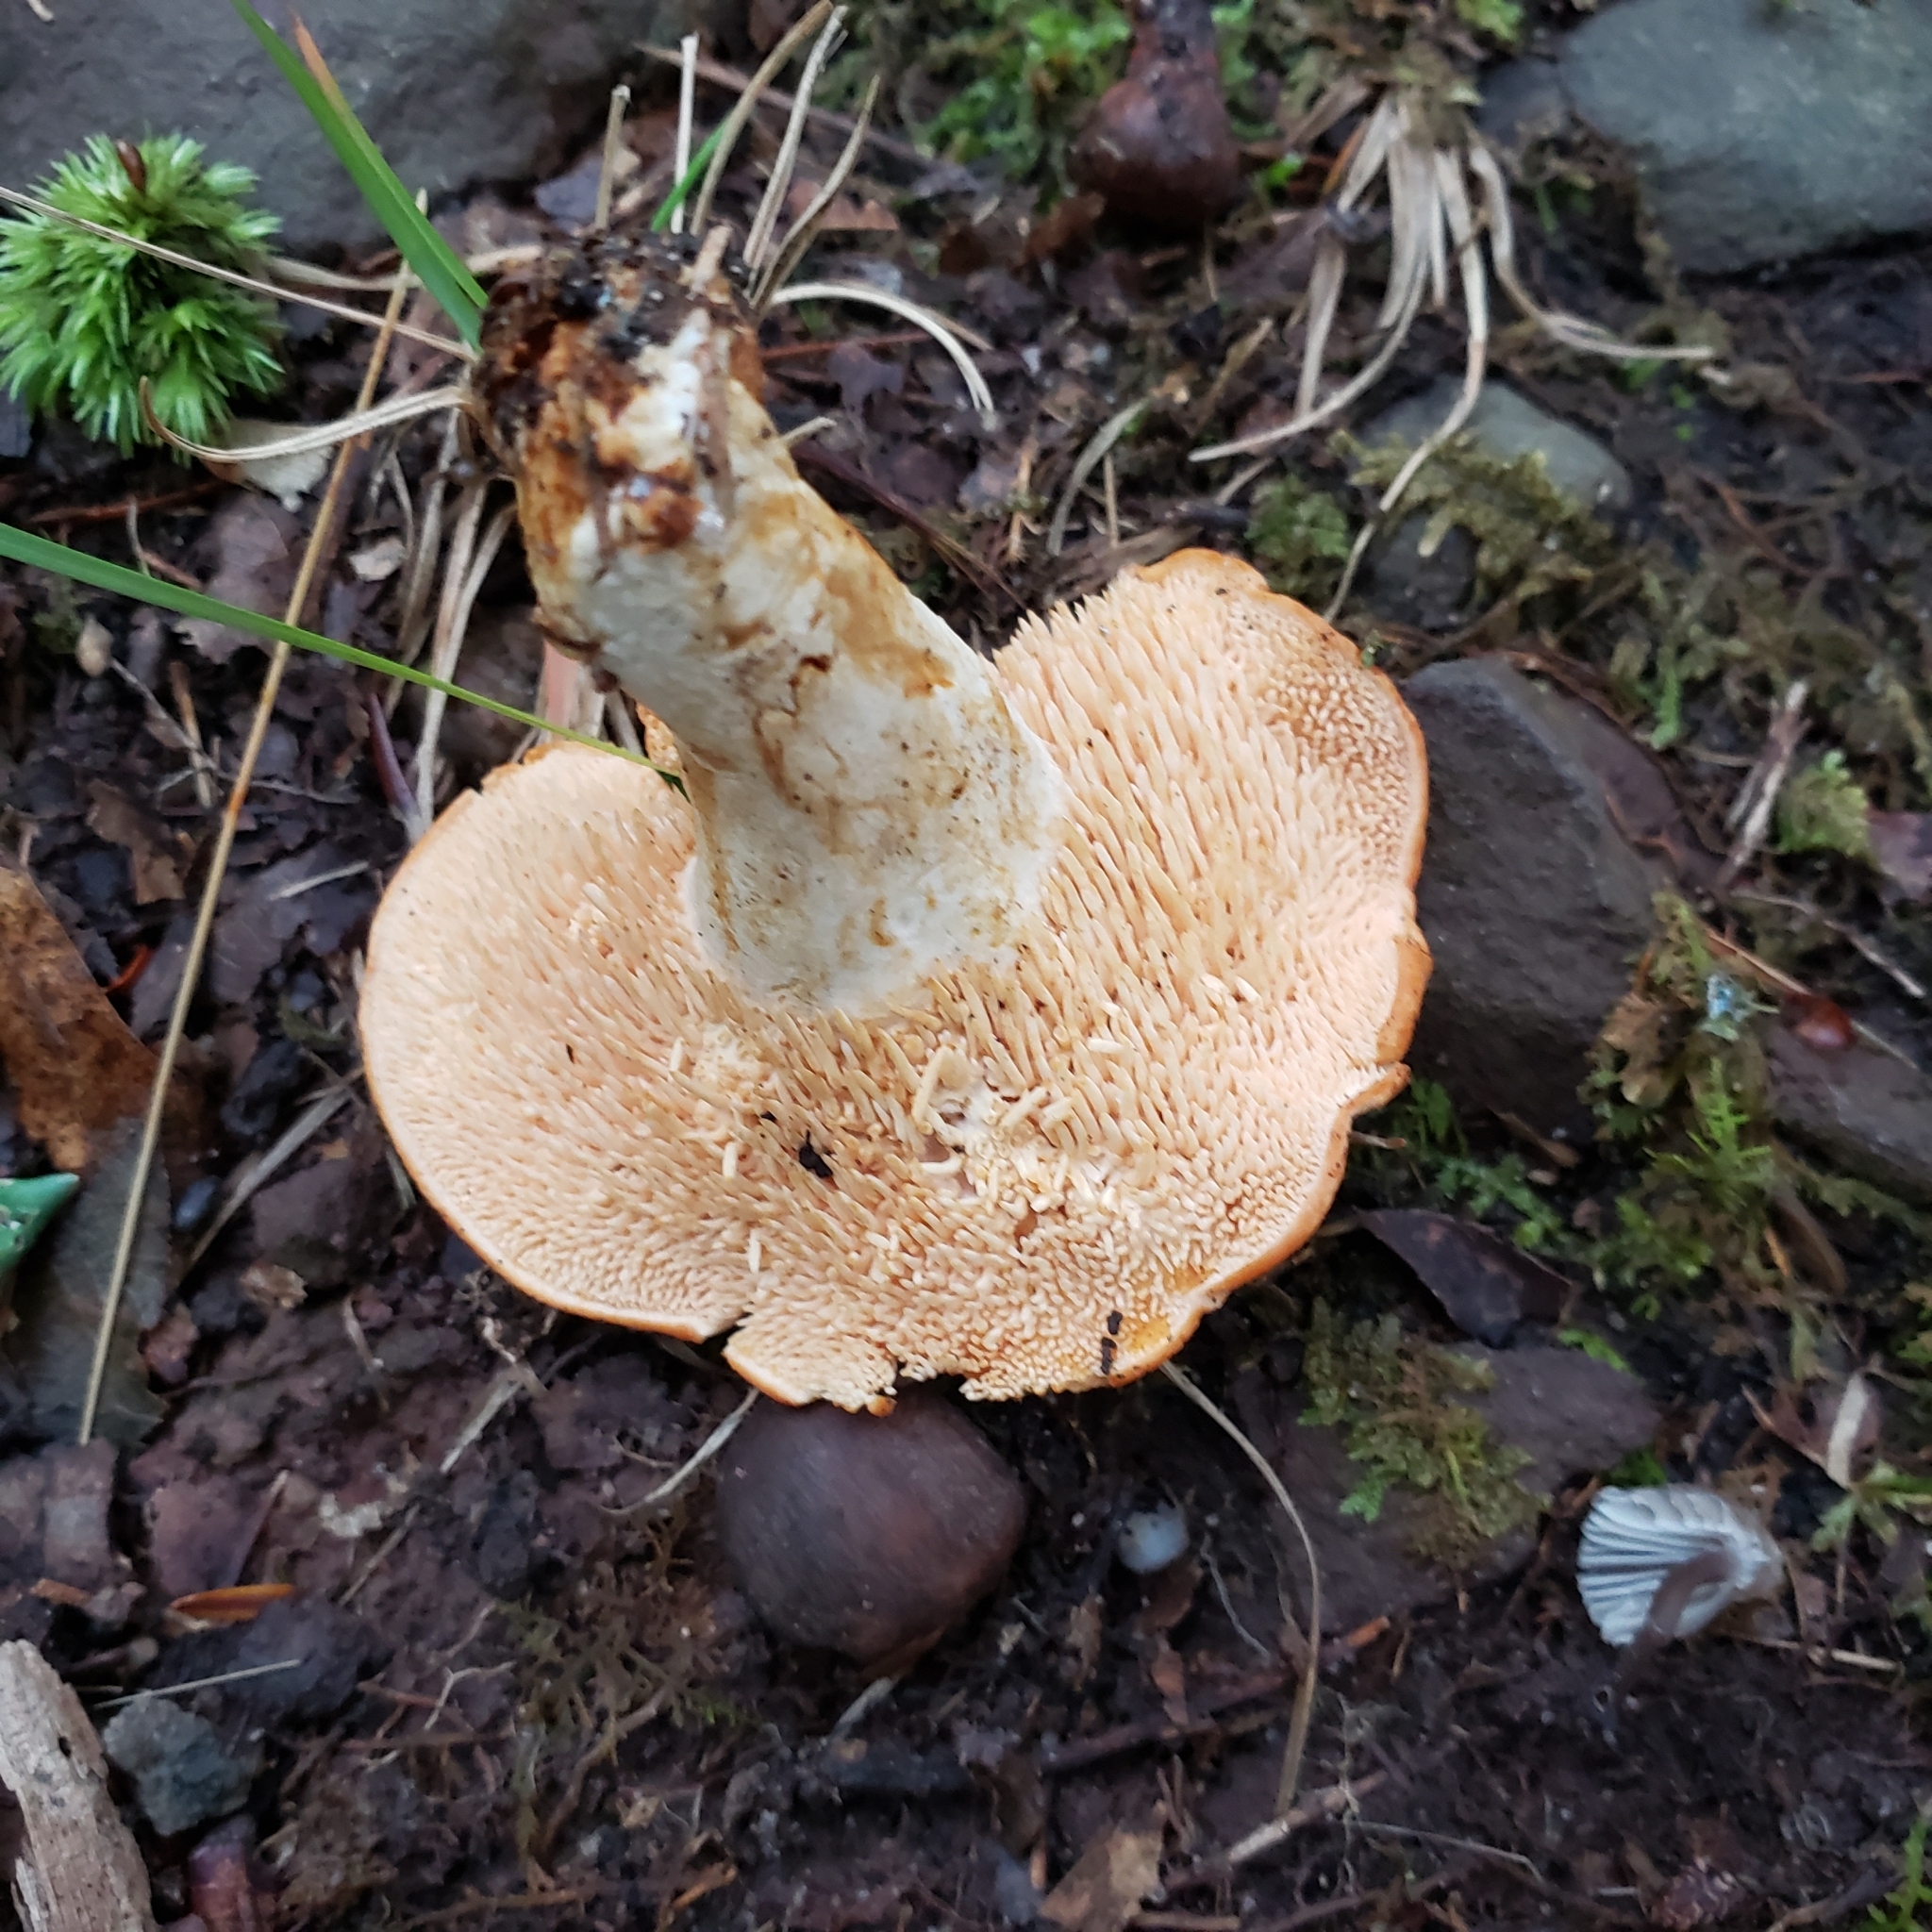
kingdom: Fungi
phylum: Basidiomycota
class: Agaricomycetes
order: Cantharellales
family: Hydnaceae
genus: Hydnum
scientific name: Hydnum umbilicatum
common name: Umbilicate hedgehog
